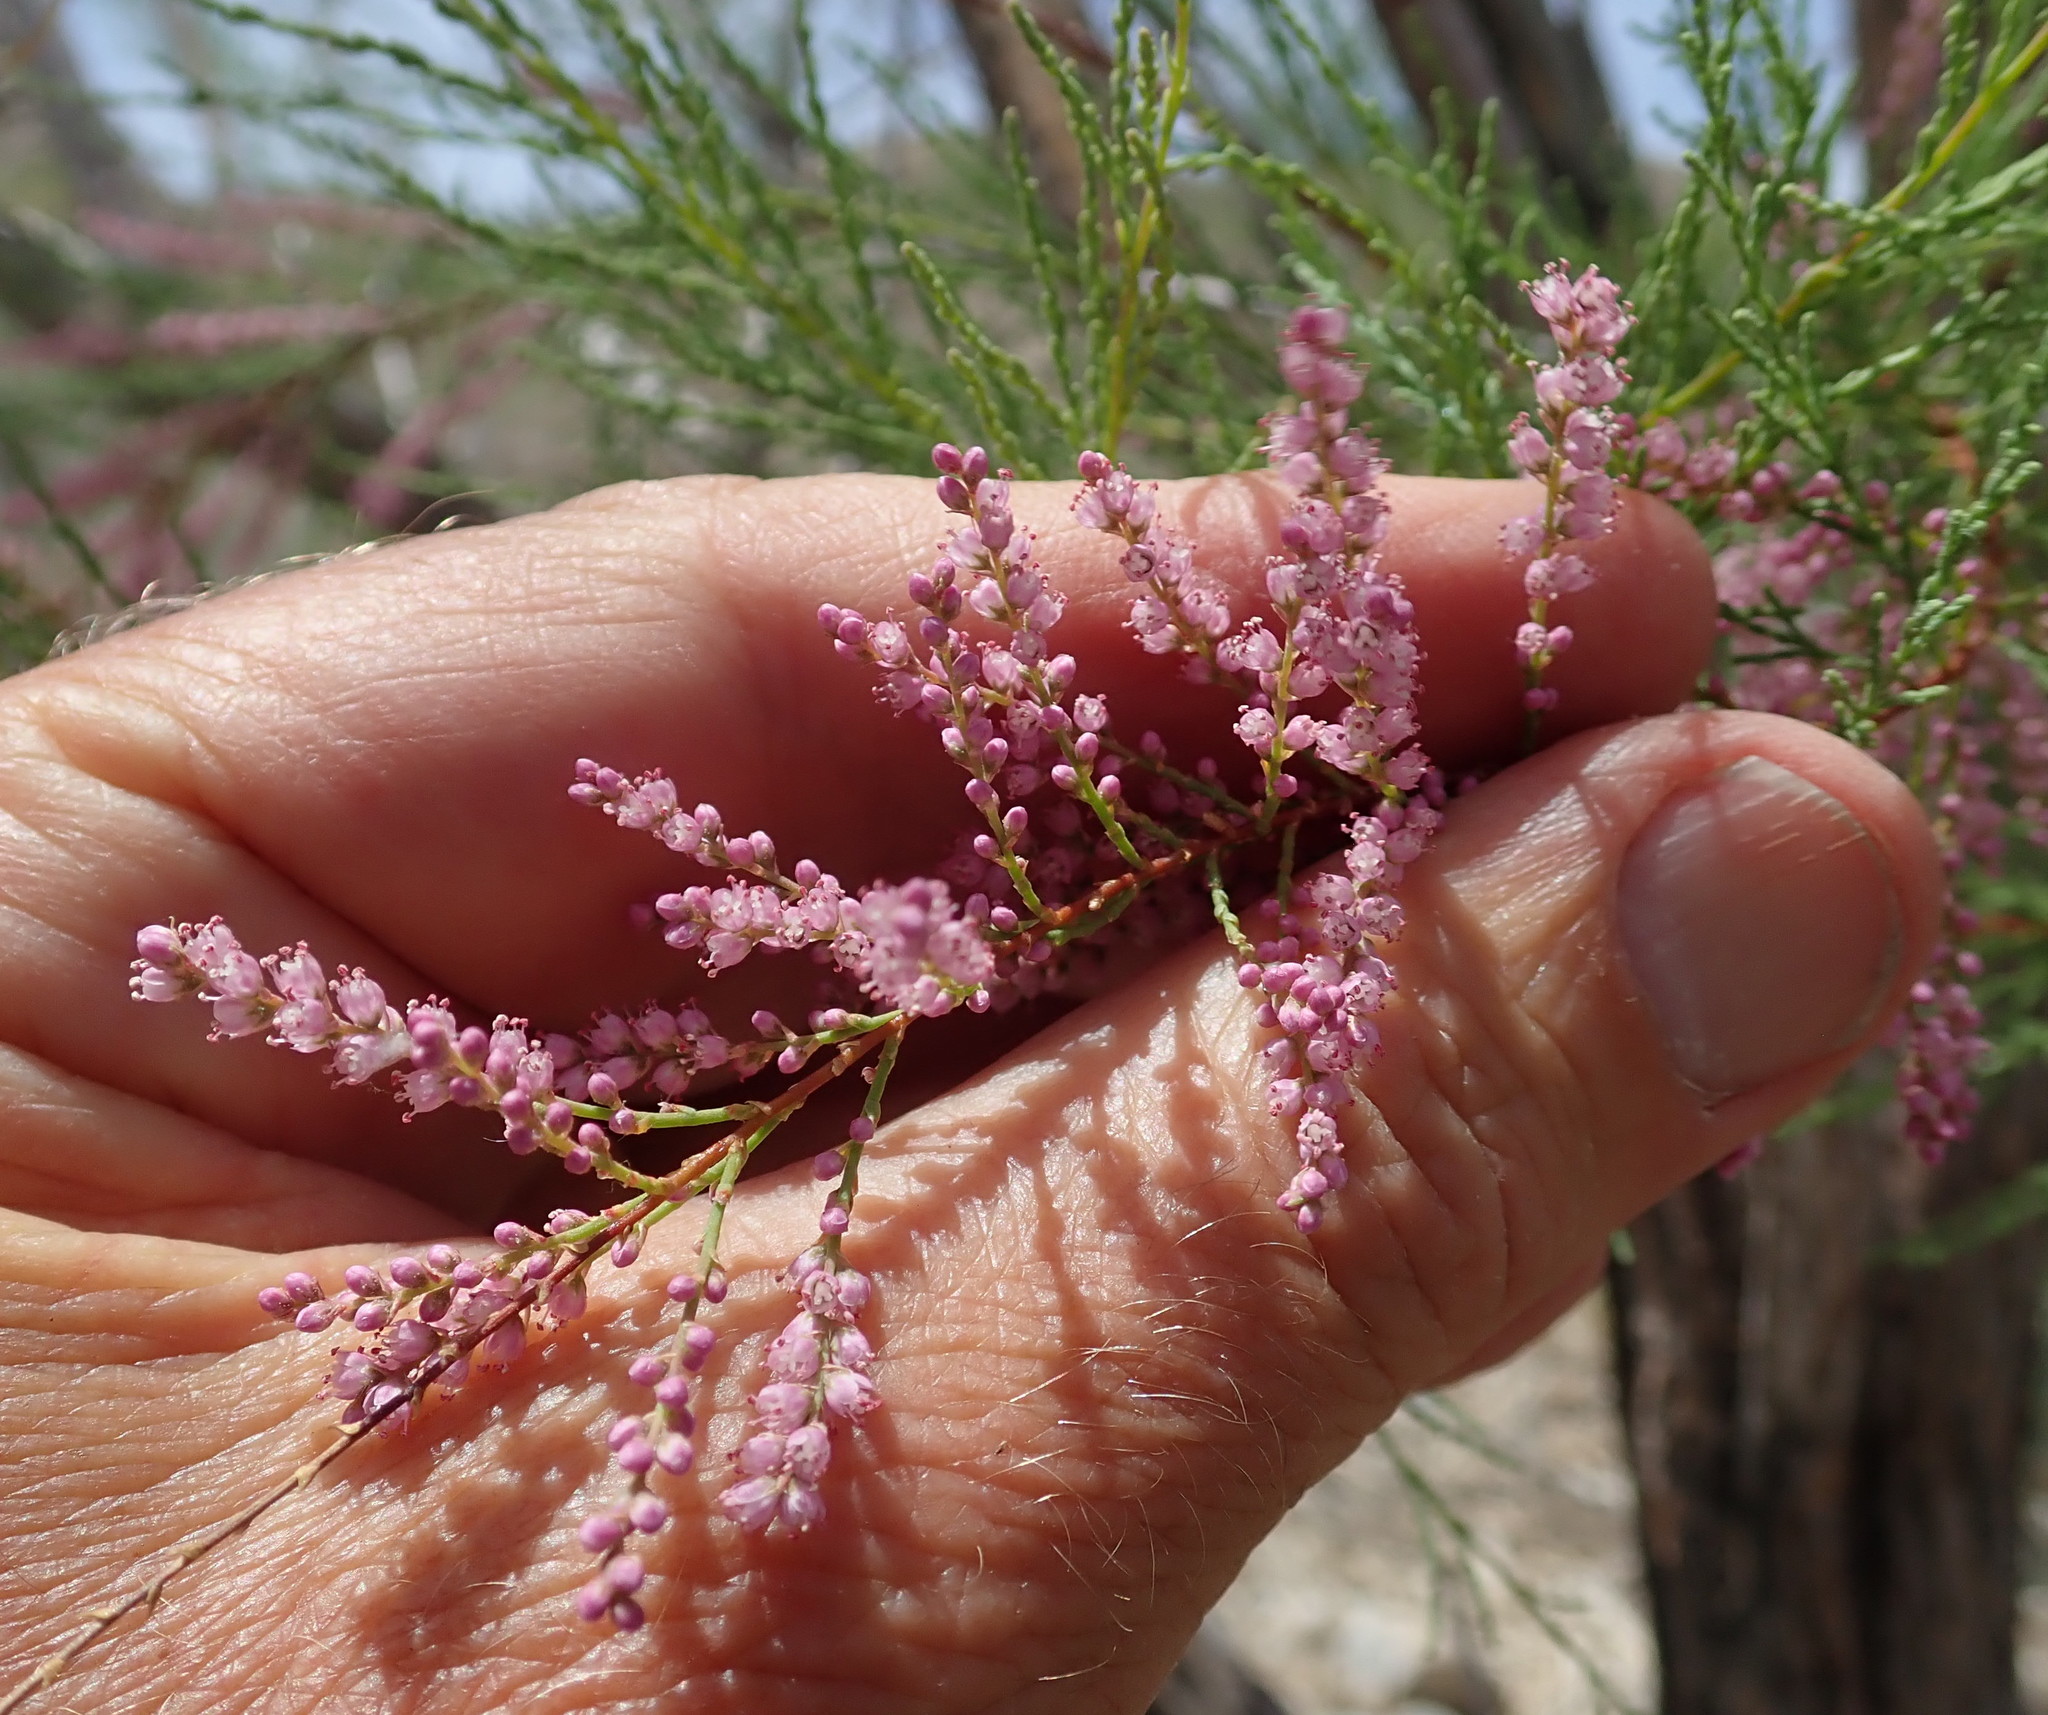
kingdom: Plantae
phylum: Tracheophyta
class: Magnoliopsida
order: Caryophyllales
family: Tamaricaceae
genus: Tamarix
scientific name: Tamarix ramosissima
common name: Pink tamarisk
